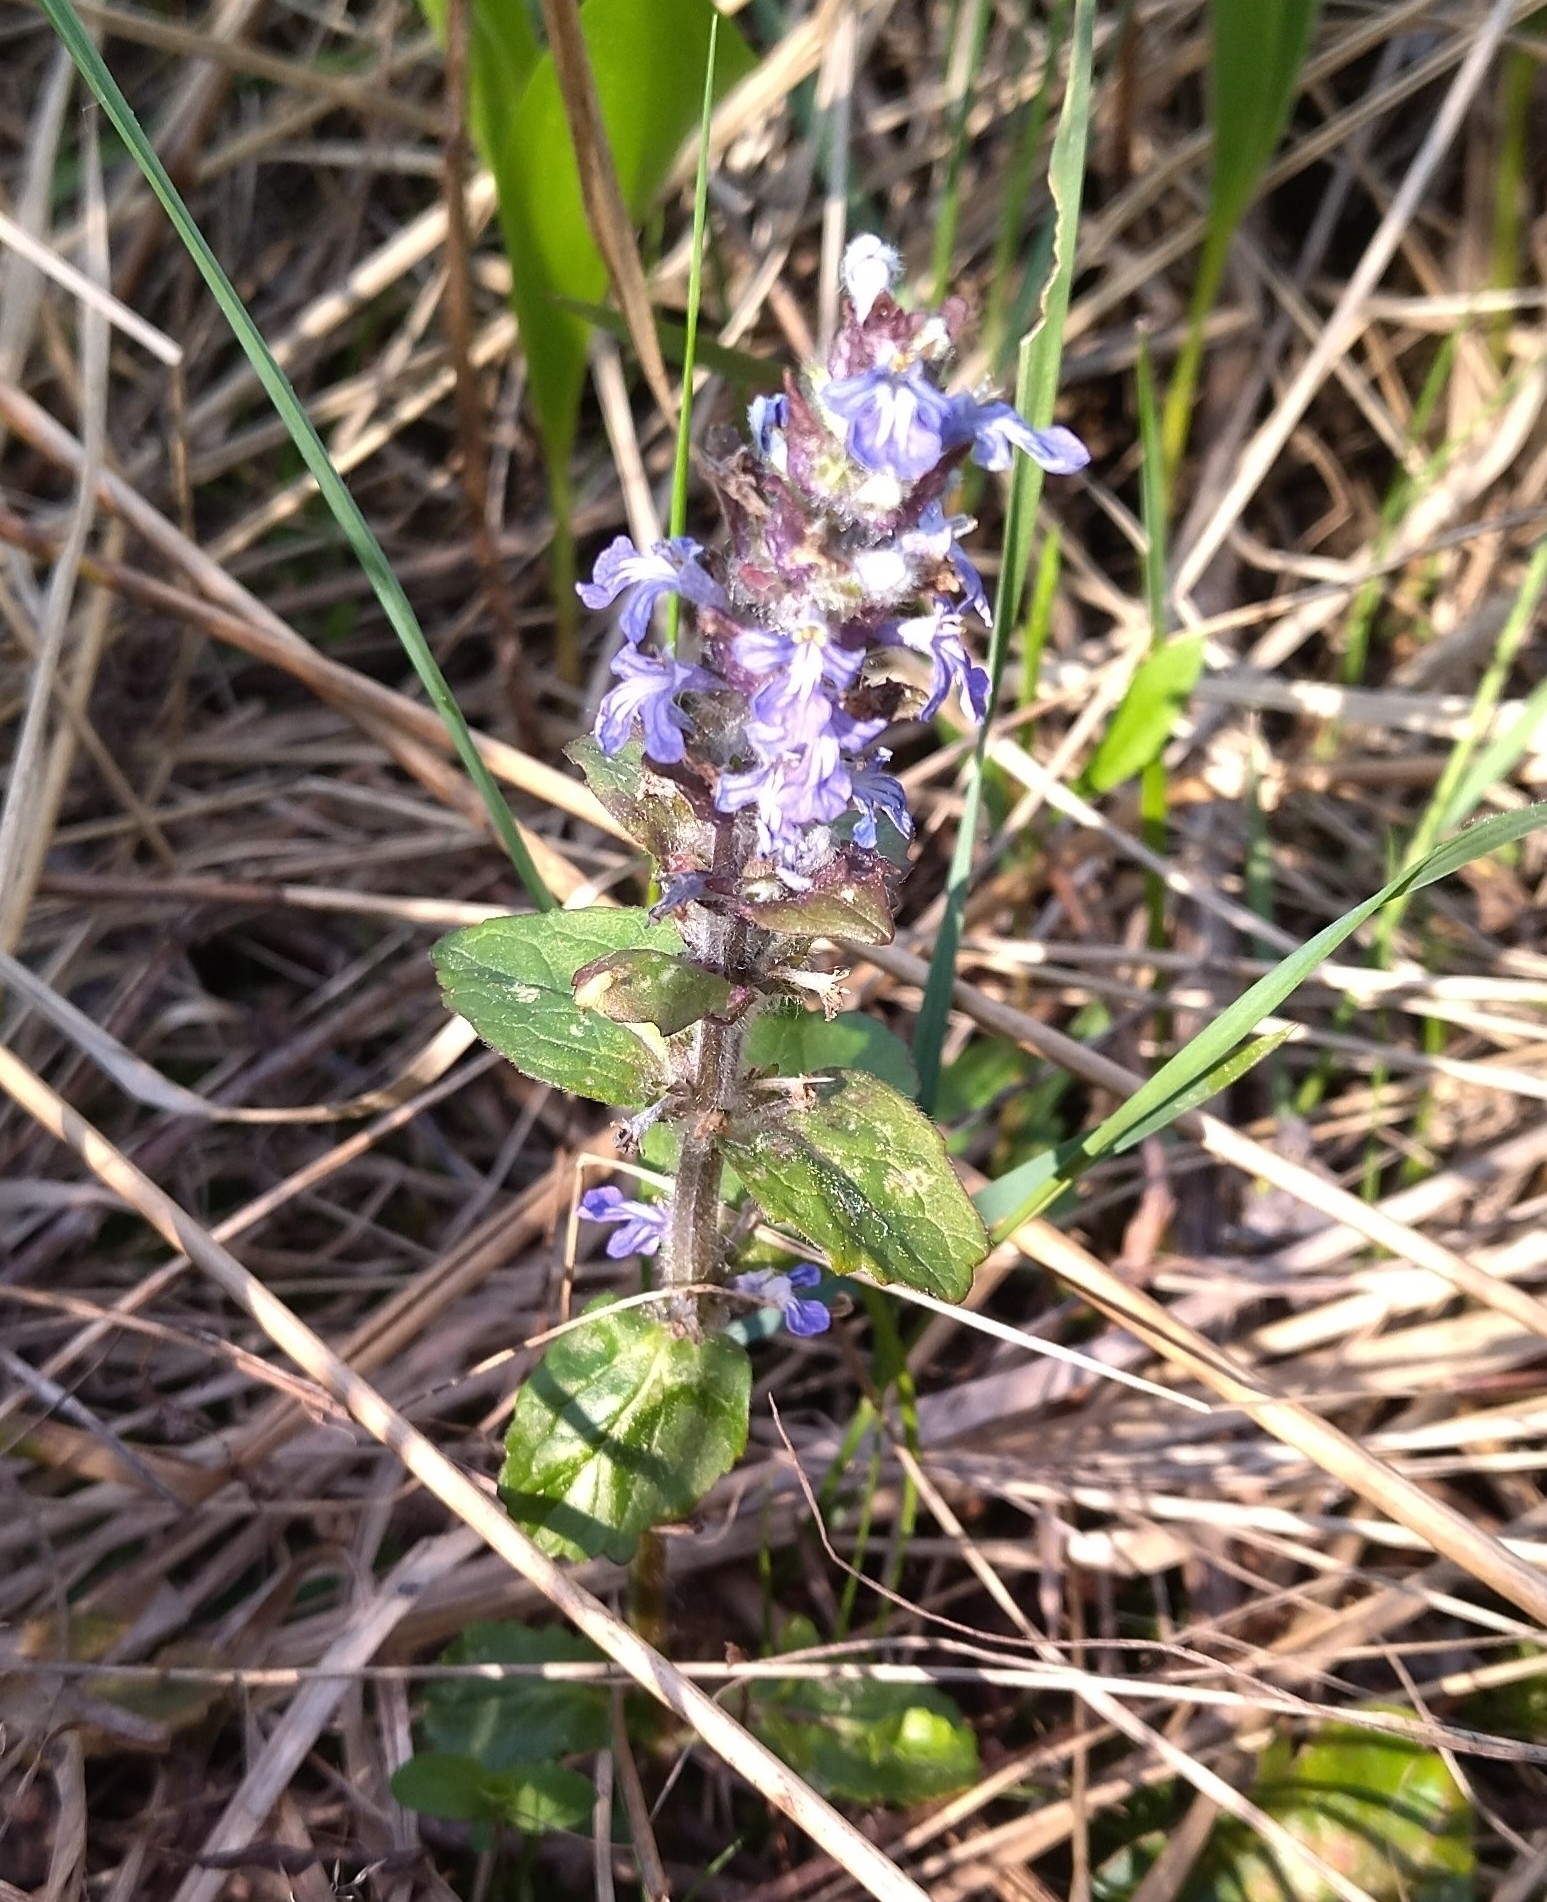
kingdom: Plantae
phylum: Tracheophyta
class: Magnoliopsida
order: Lamiales
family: Lamiaceae
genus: Ajuga
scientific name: Ajuga reptans
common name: Bugle
